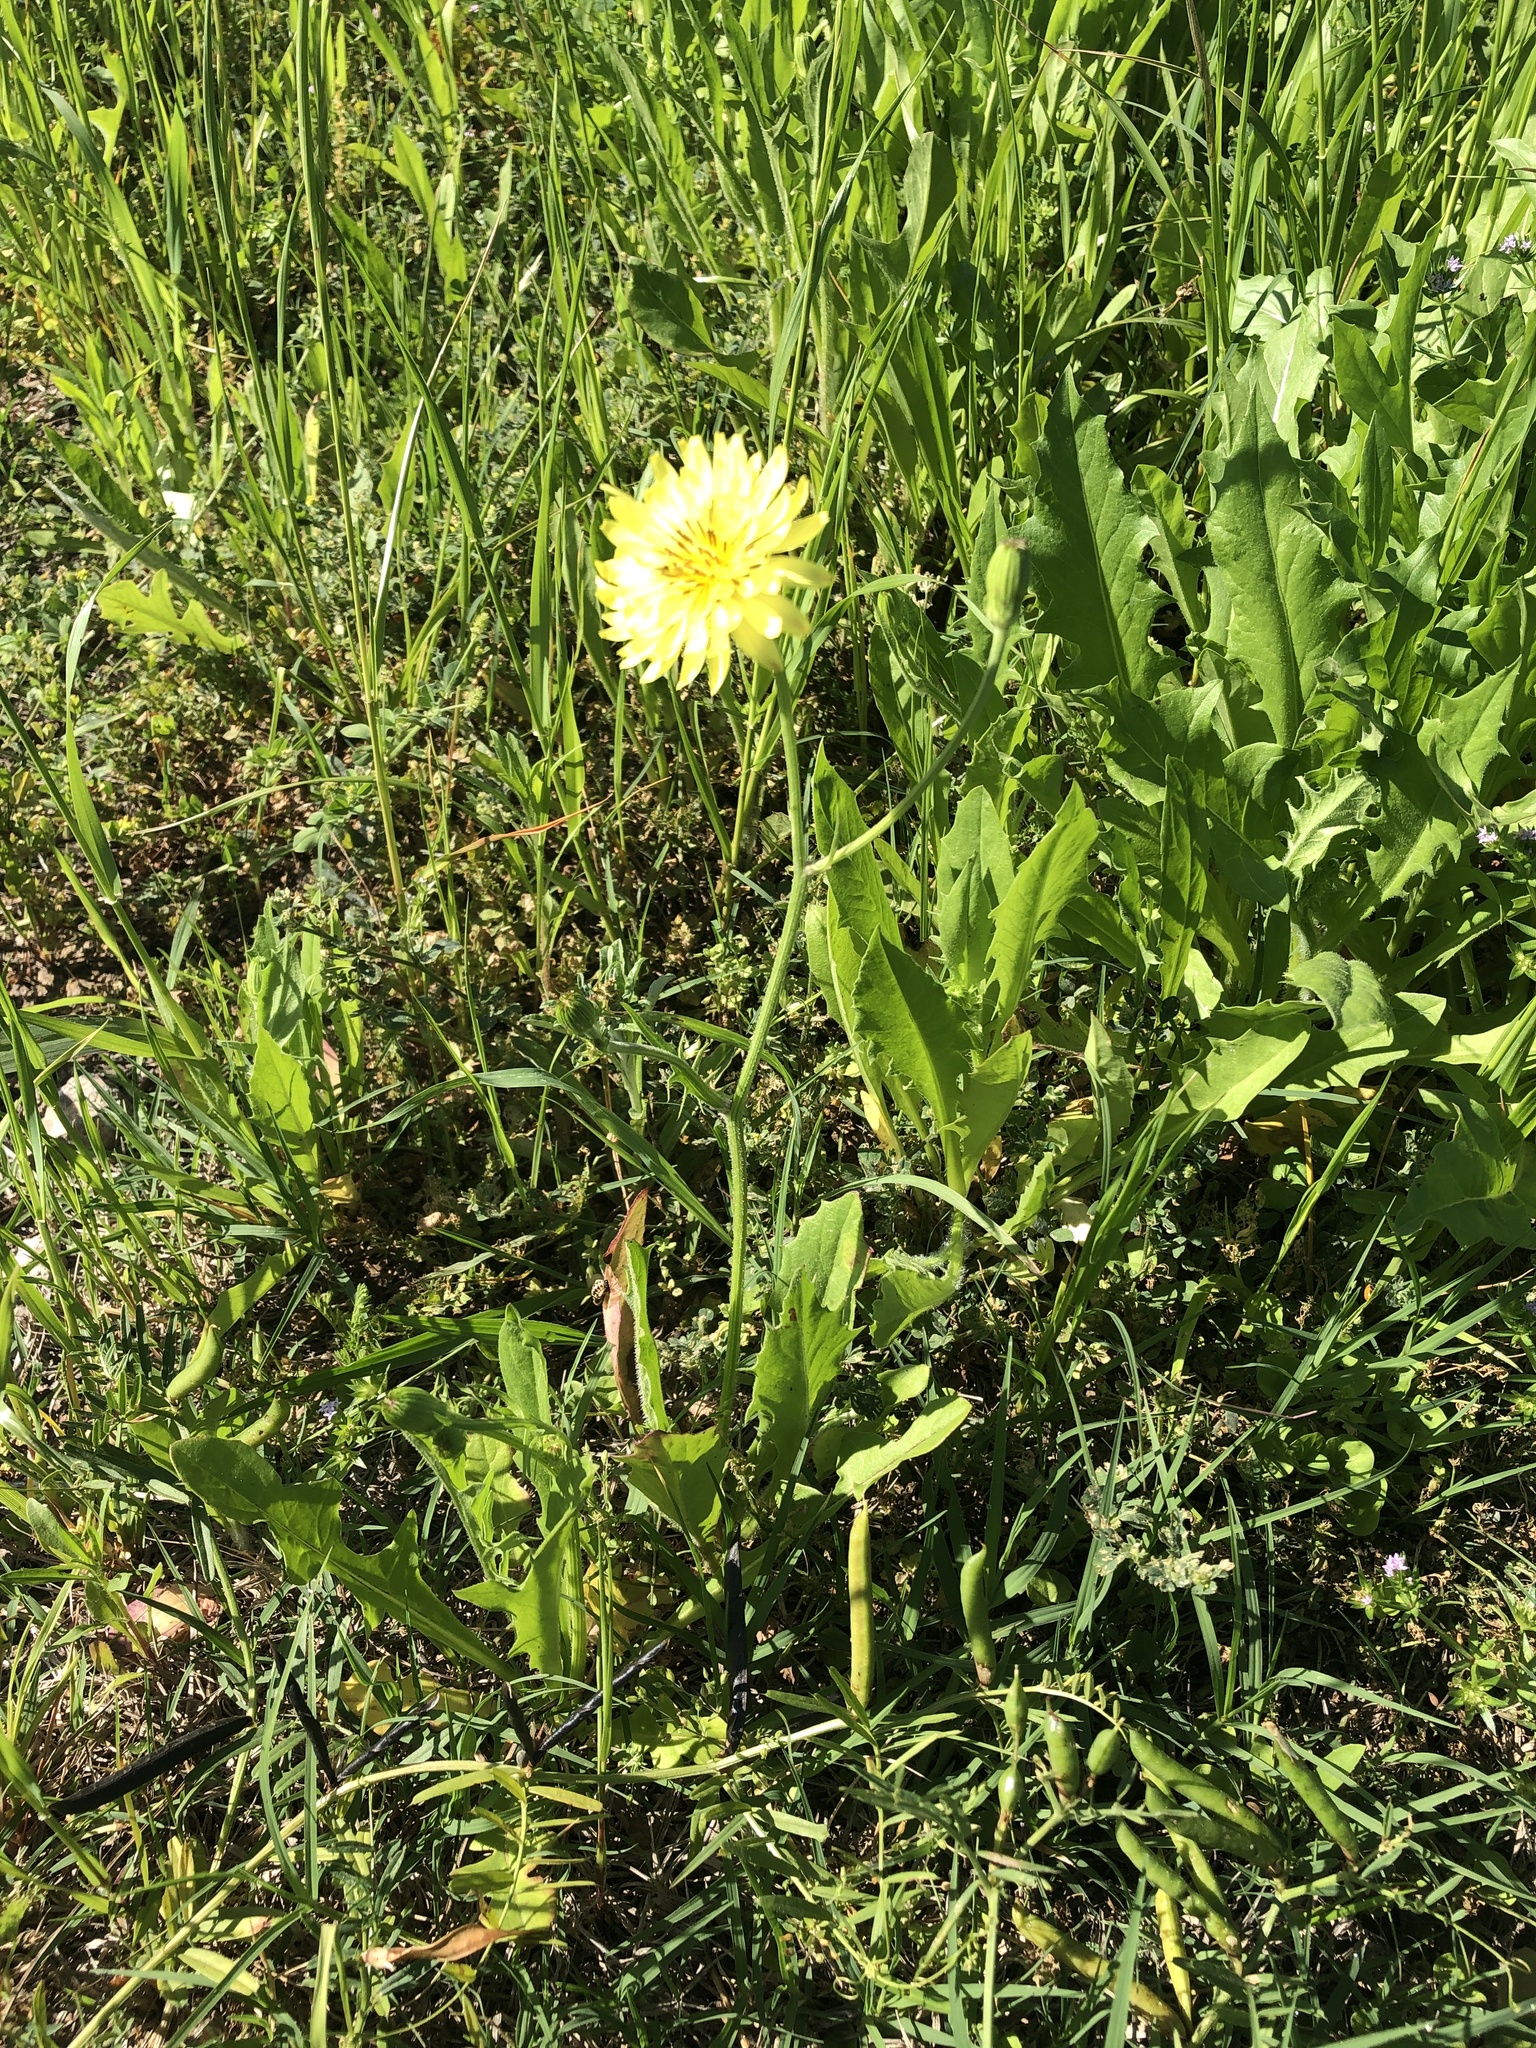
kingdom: Plantae
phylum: Tracheophyta
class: Magnoliopsida
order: Asterales
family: Asteraceae
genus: Pyrrhopappus
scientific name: Pyrrhopappus pauciflorus
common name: Texas false dandelion
